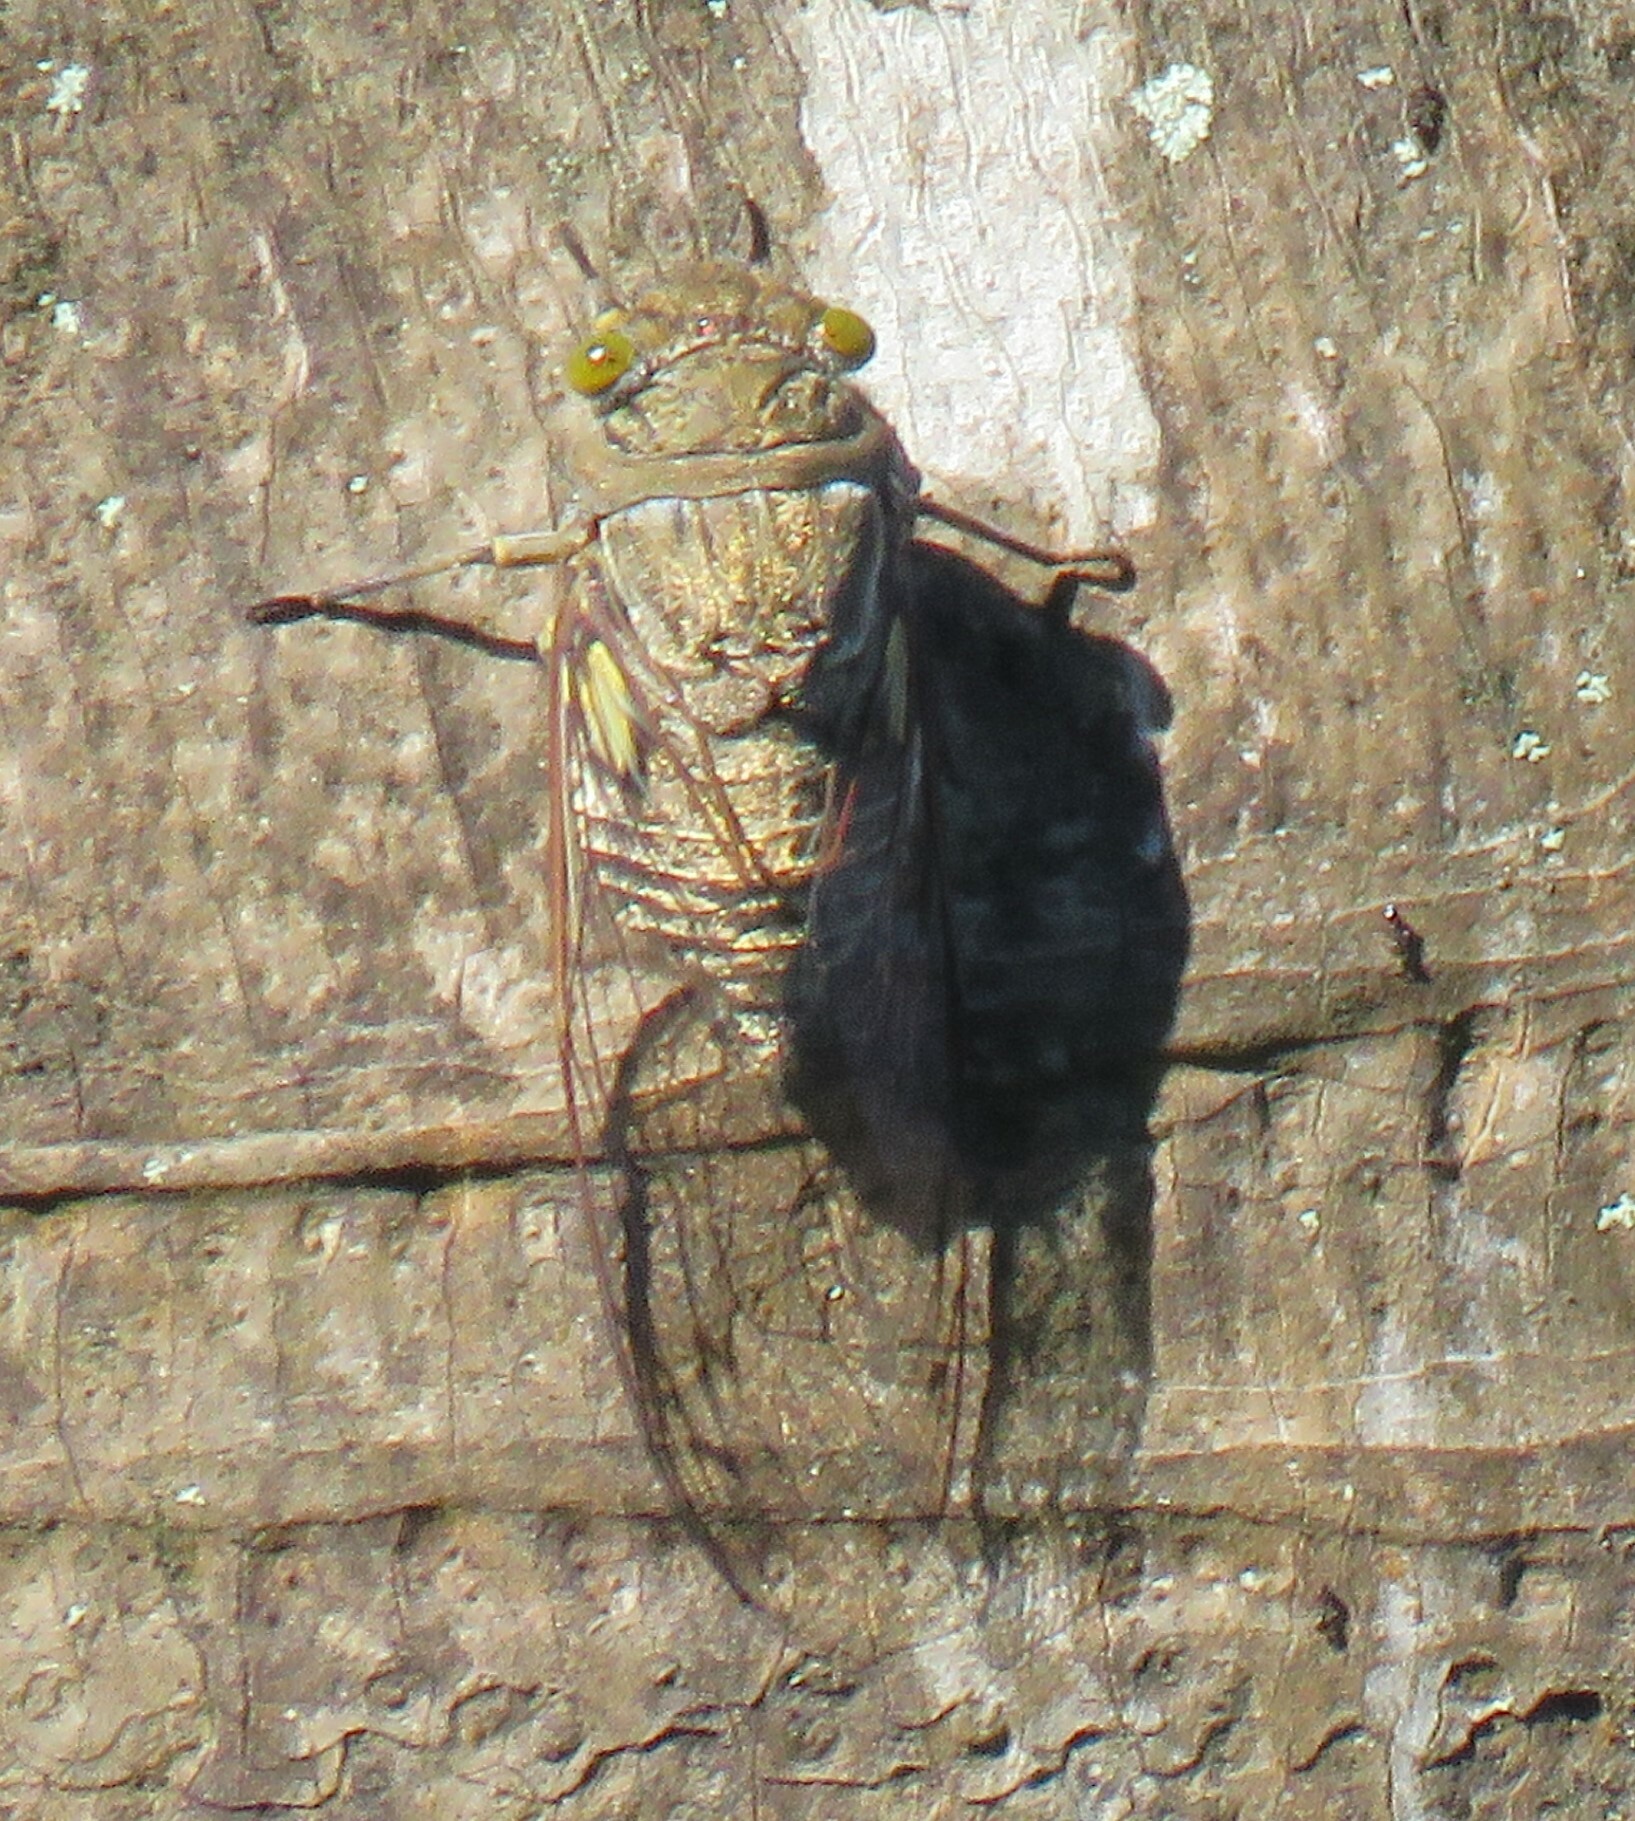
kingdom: Animalia
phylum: Arthropoda
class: Insecta
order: Hemiptera
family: Cicadidae
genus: Quesada
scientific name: Quesada gigas
